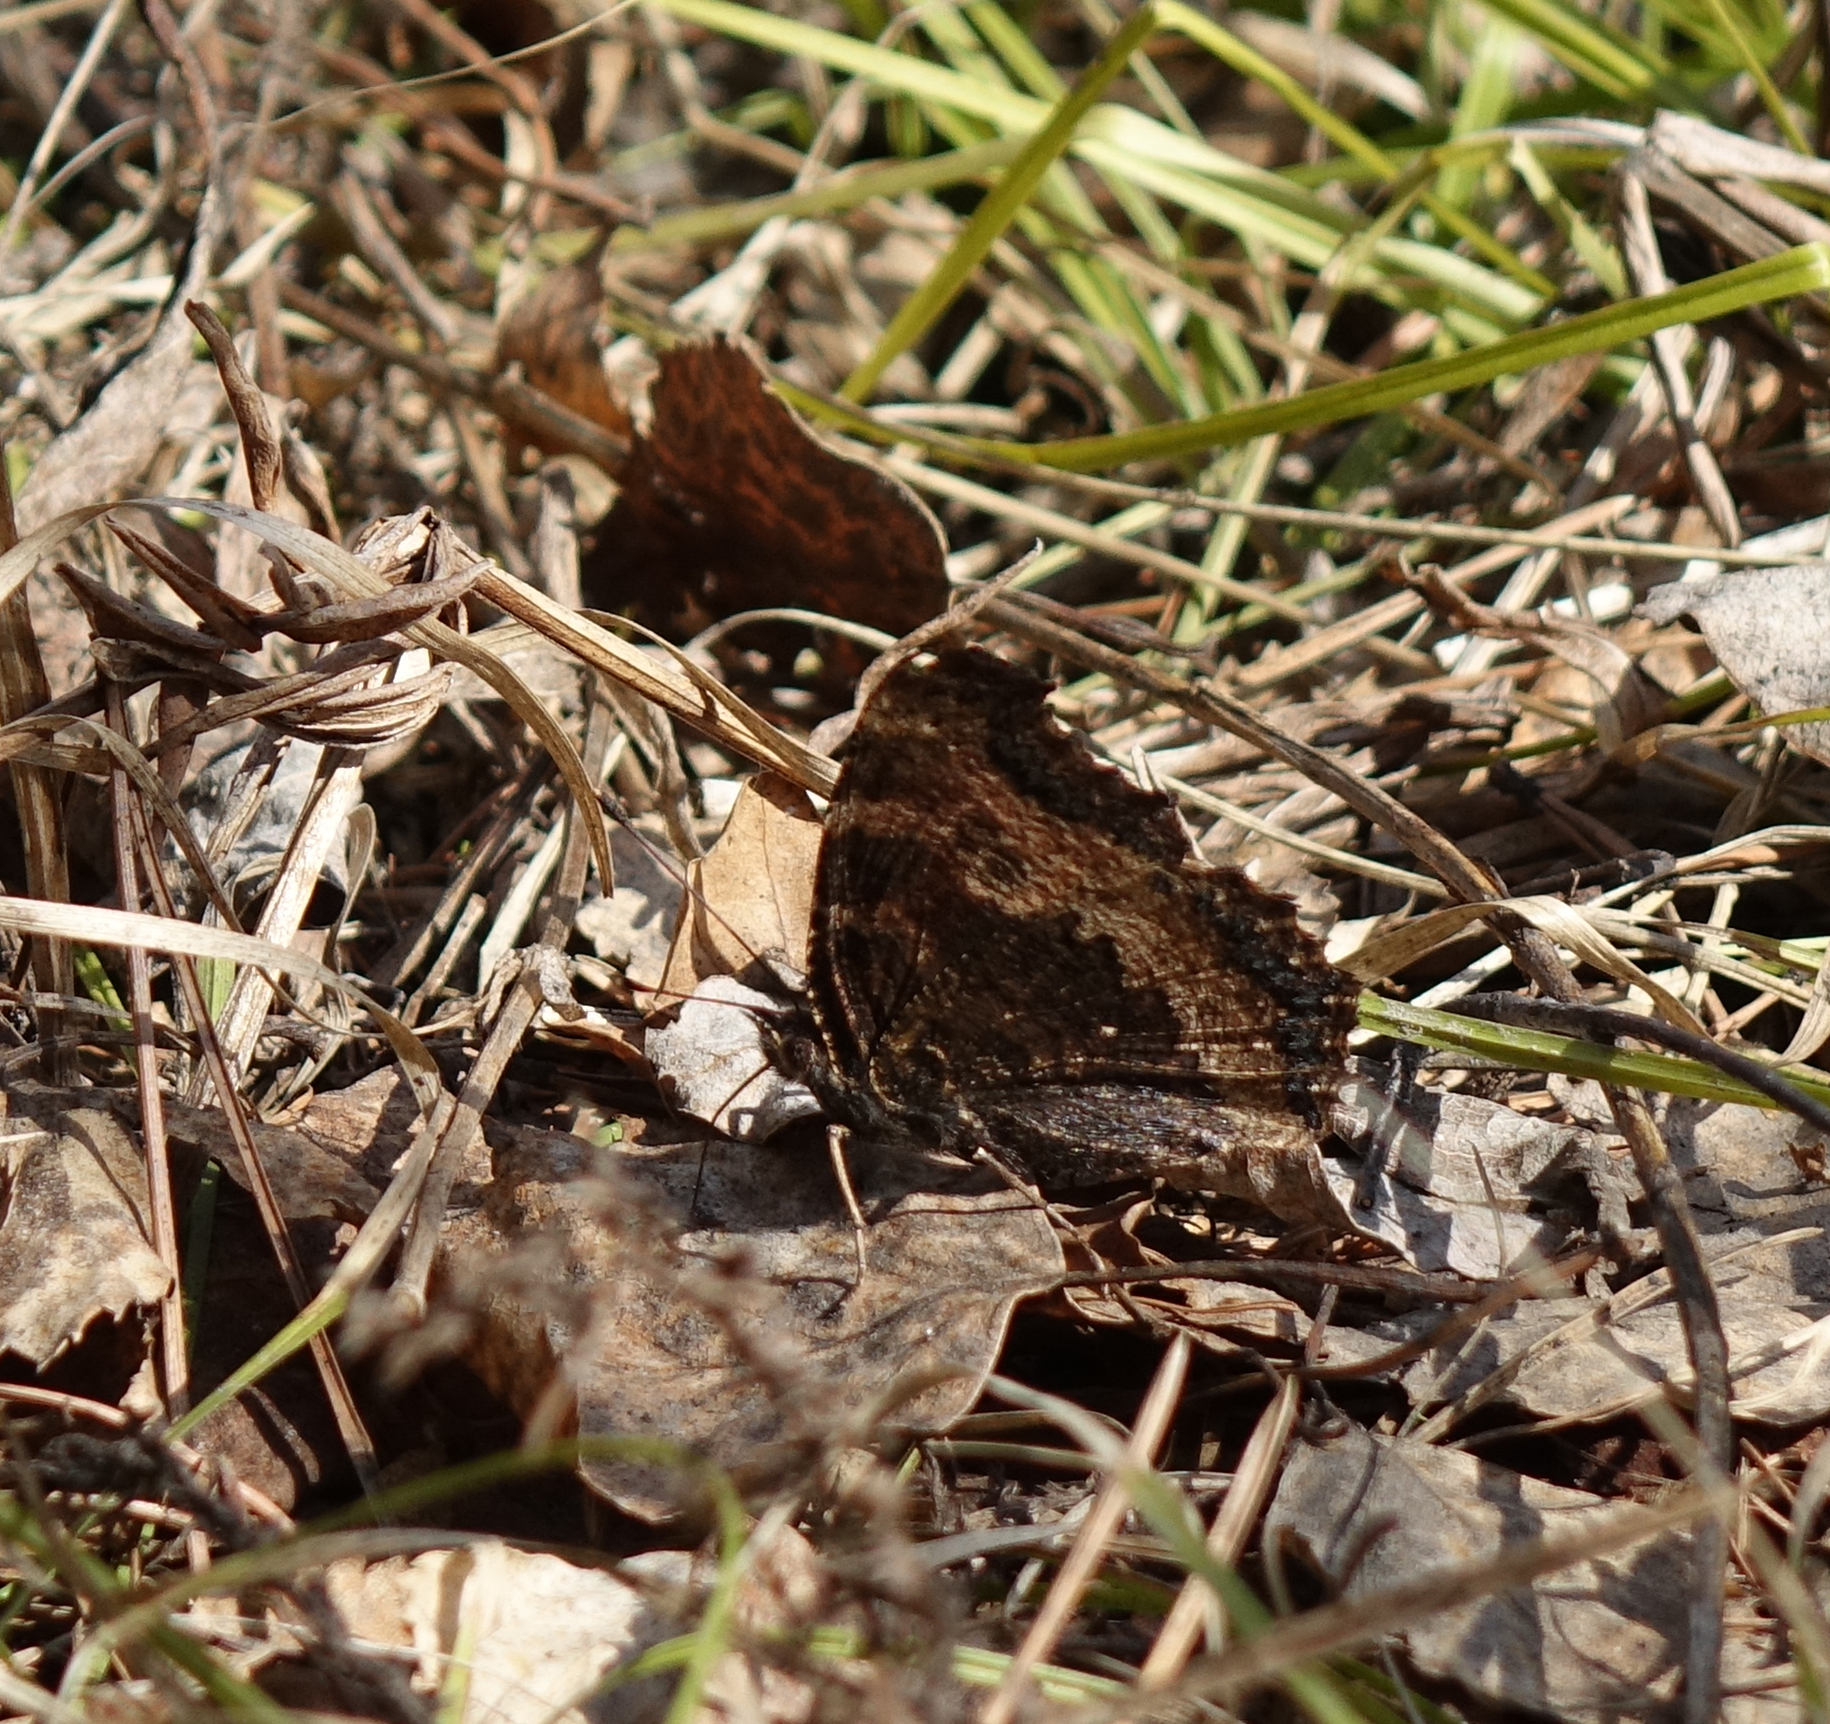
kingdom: Animalia
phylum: Arthropoda
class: Insecta
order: Lepidoptera
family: Nymphalidae
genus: Nymphalis
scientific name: Nymphalis xanthomelas
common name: Scarce tortoiseshell
